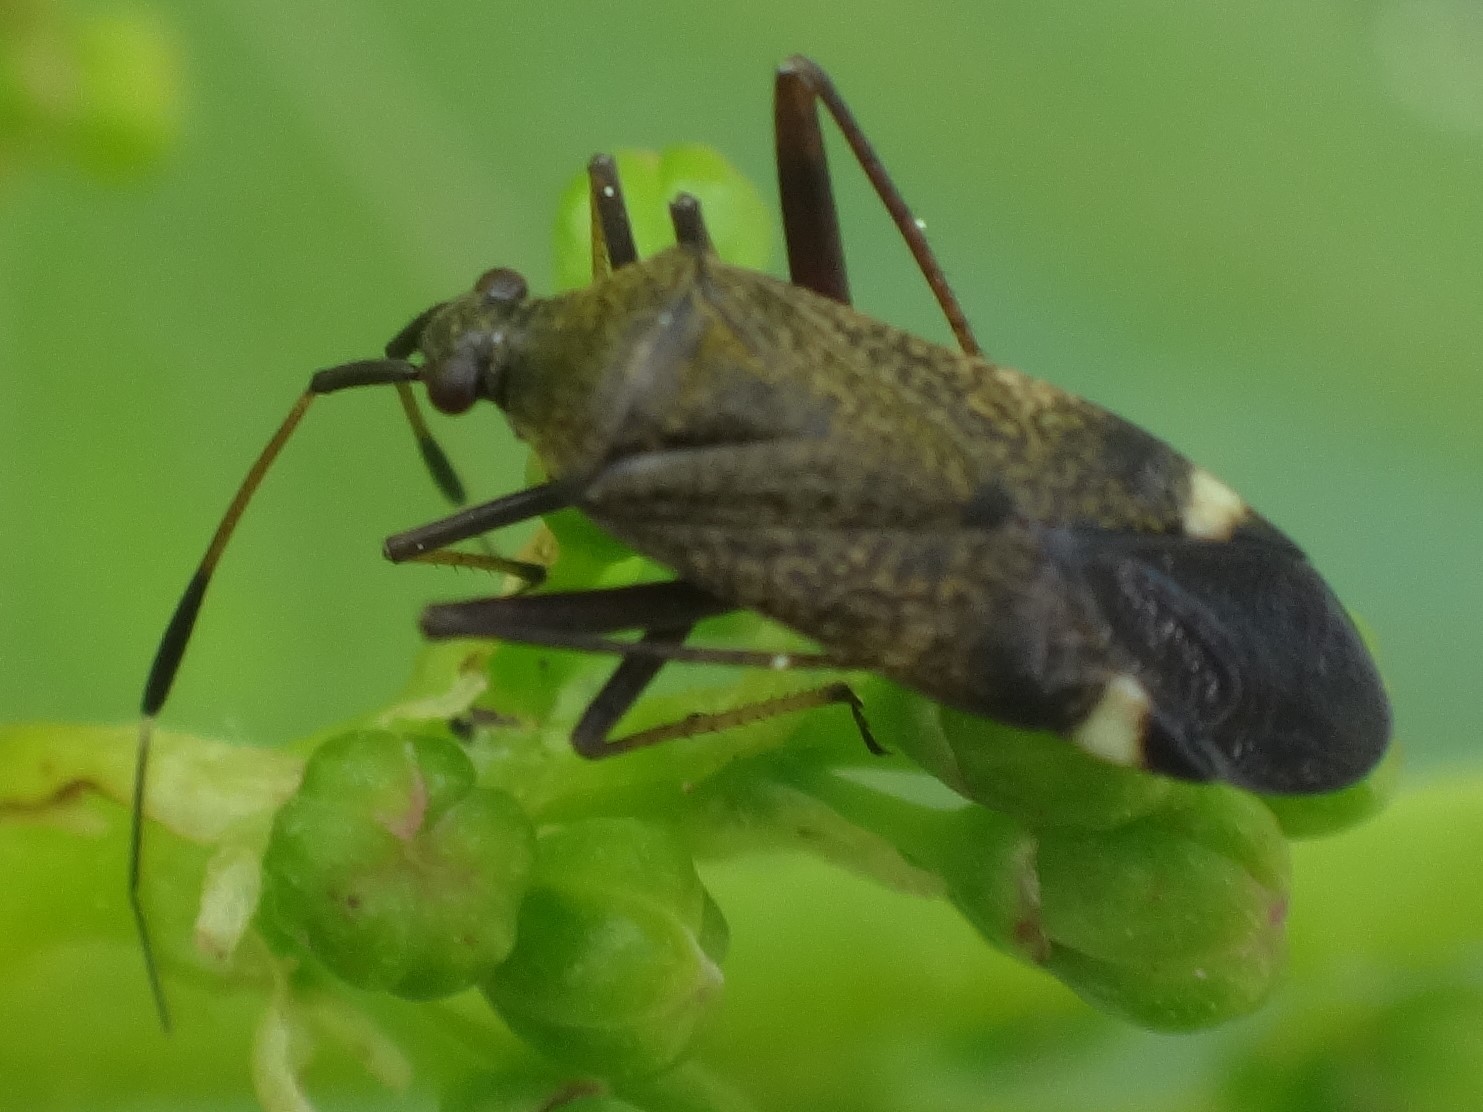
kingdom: Animalia
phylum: Arthropoda
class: Insecta
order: Hemiptera
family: Miridae
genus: Closterotomus
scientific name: Closterotomus biclavatus
